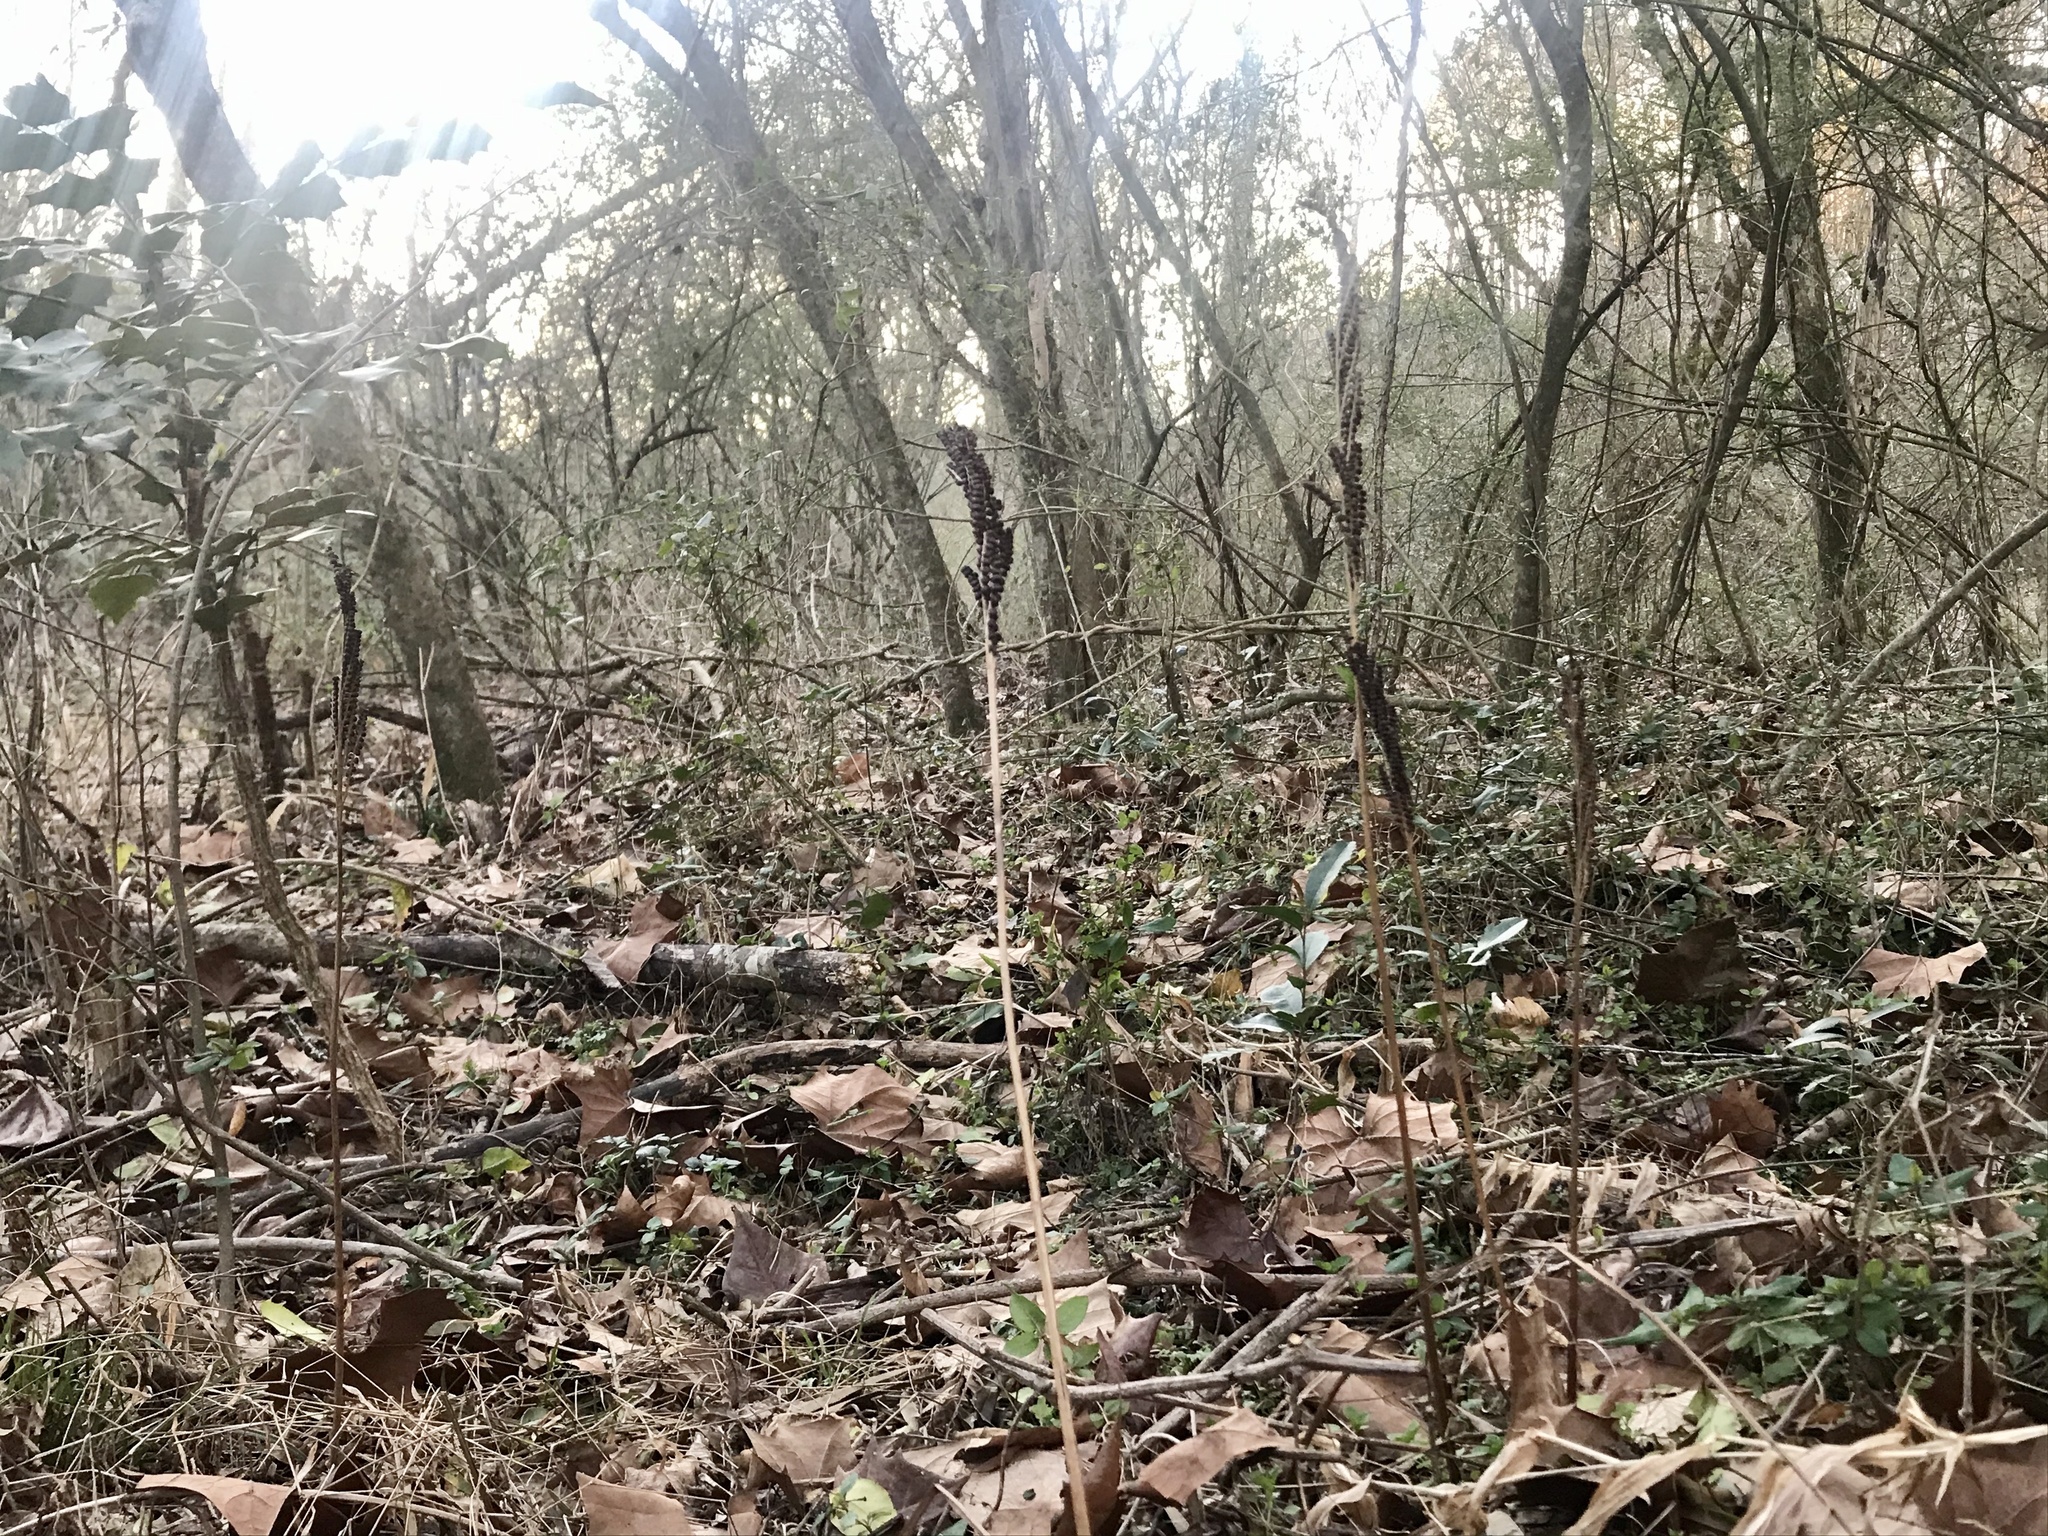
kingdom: Plantae
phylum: Tracheophyta
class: Polypodiopsida
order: Polypodiales
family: Onocleaceae
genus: Onoclea
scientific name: Onoclea sensibilis
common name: Sensitive fern
